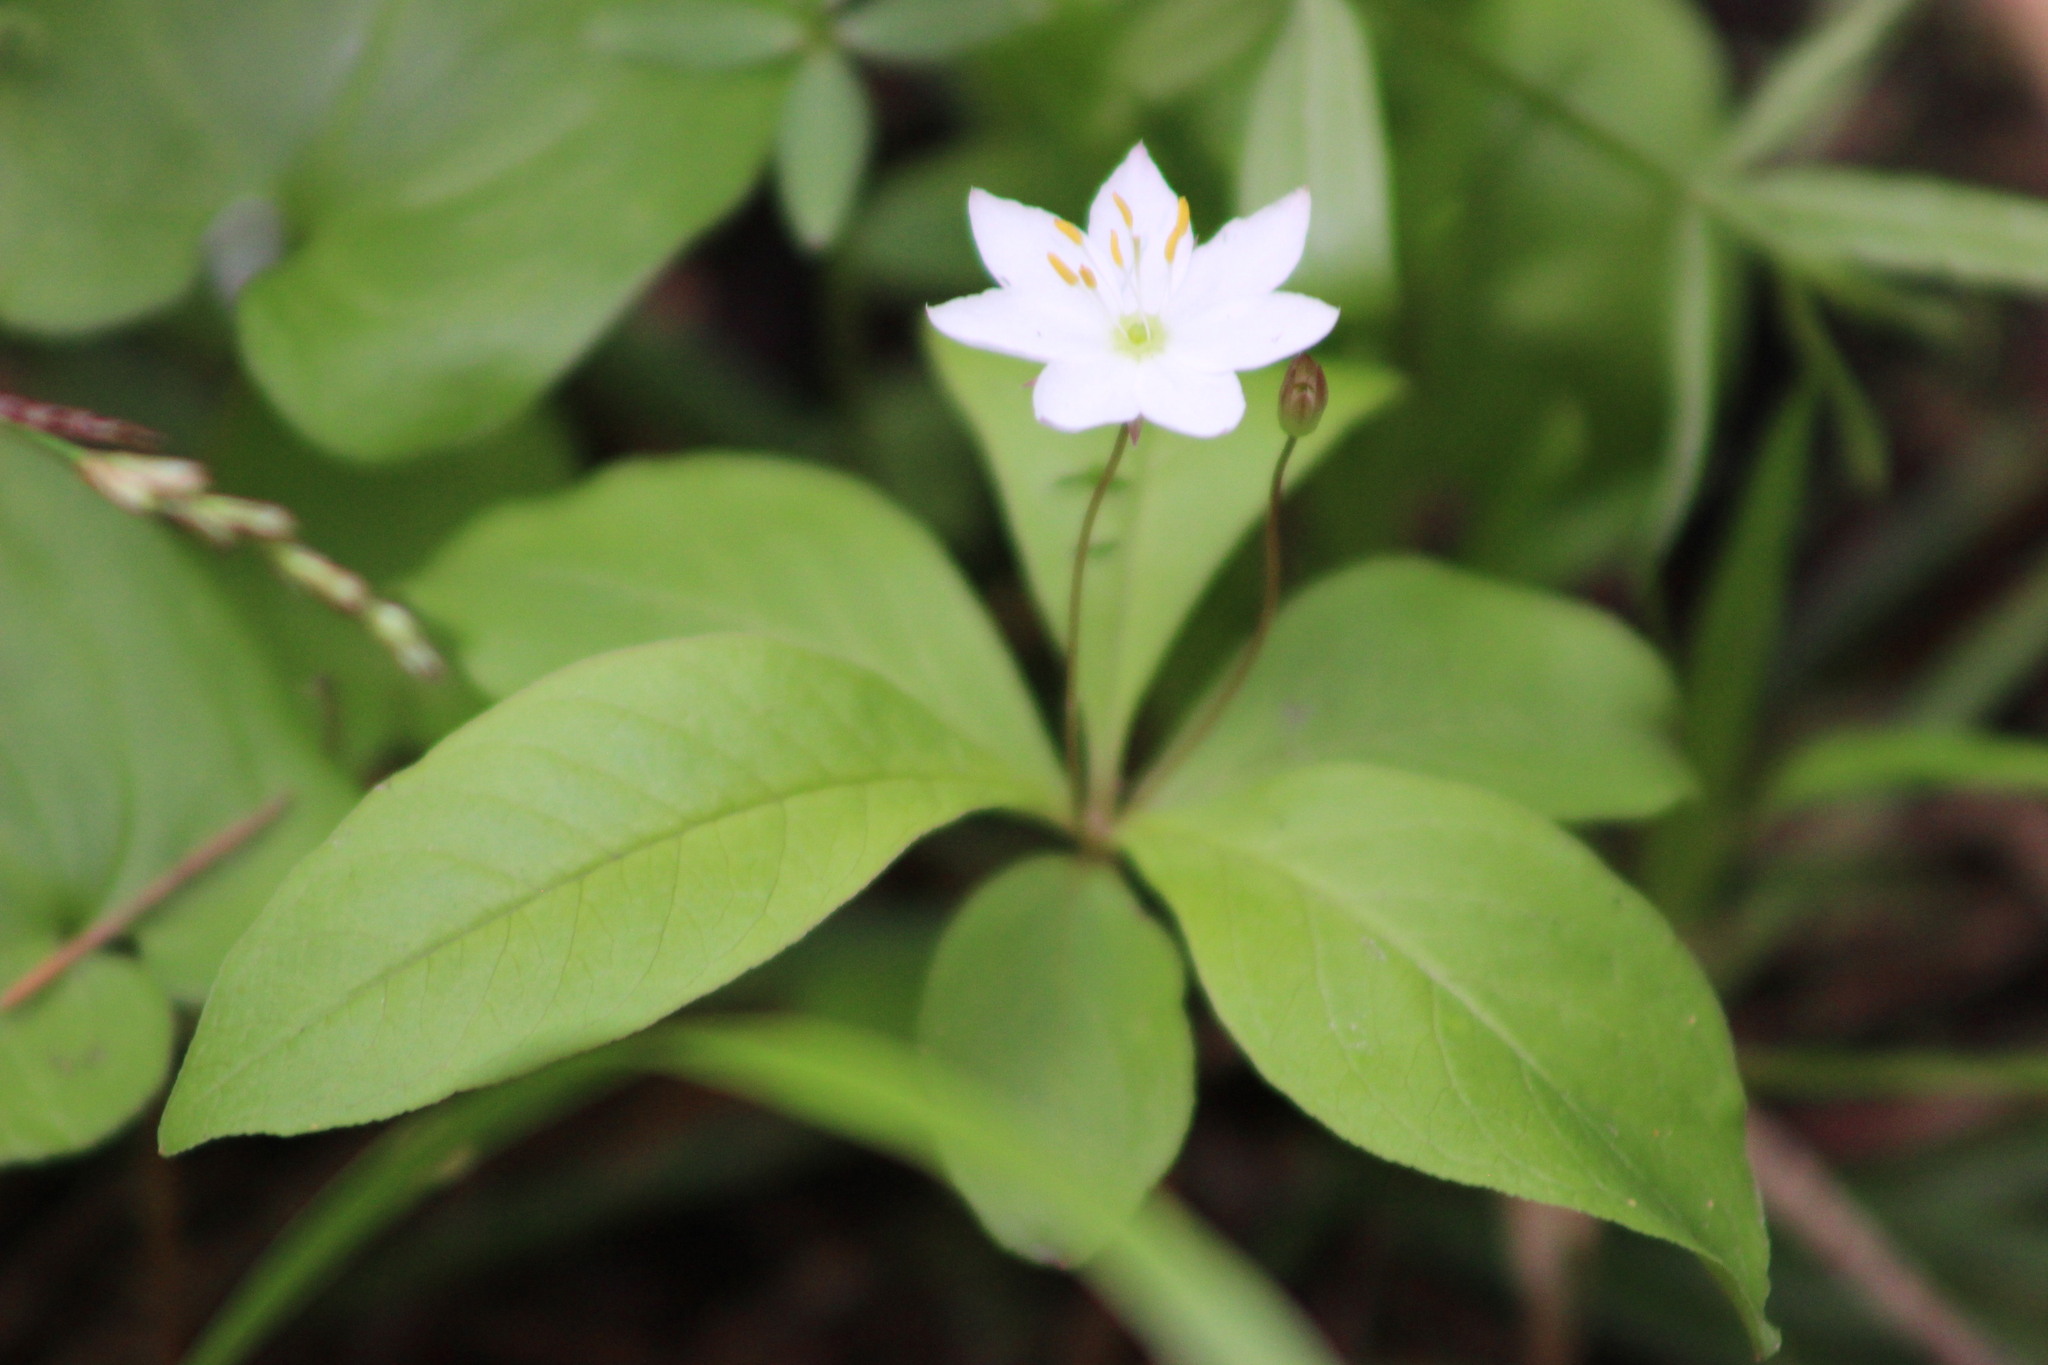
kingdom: Plantae
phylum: Tracheophyta
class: Magnoliopsida
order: Ericales
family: Primulaceae
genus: Lysimachia
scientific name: Lysimachia europaea
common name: Arctic starflower
